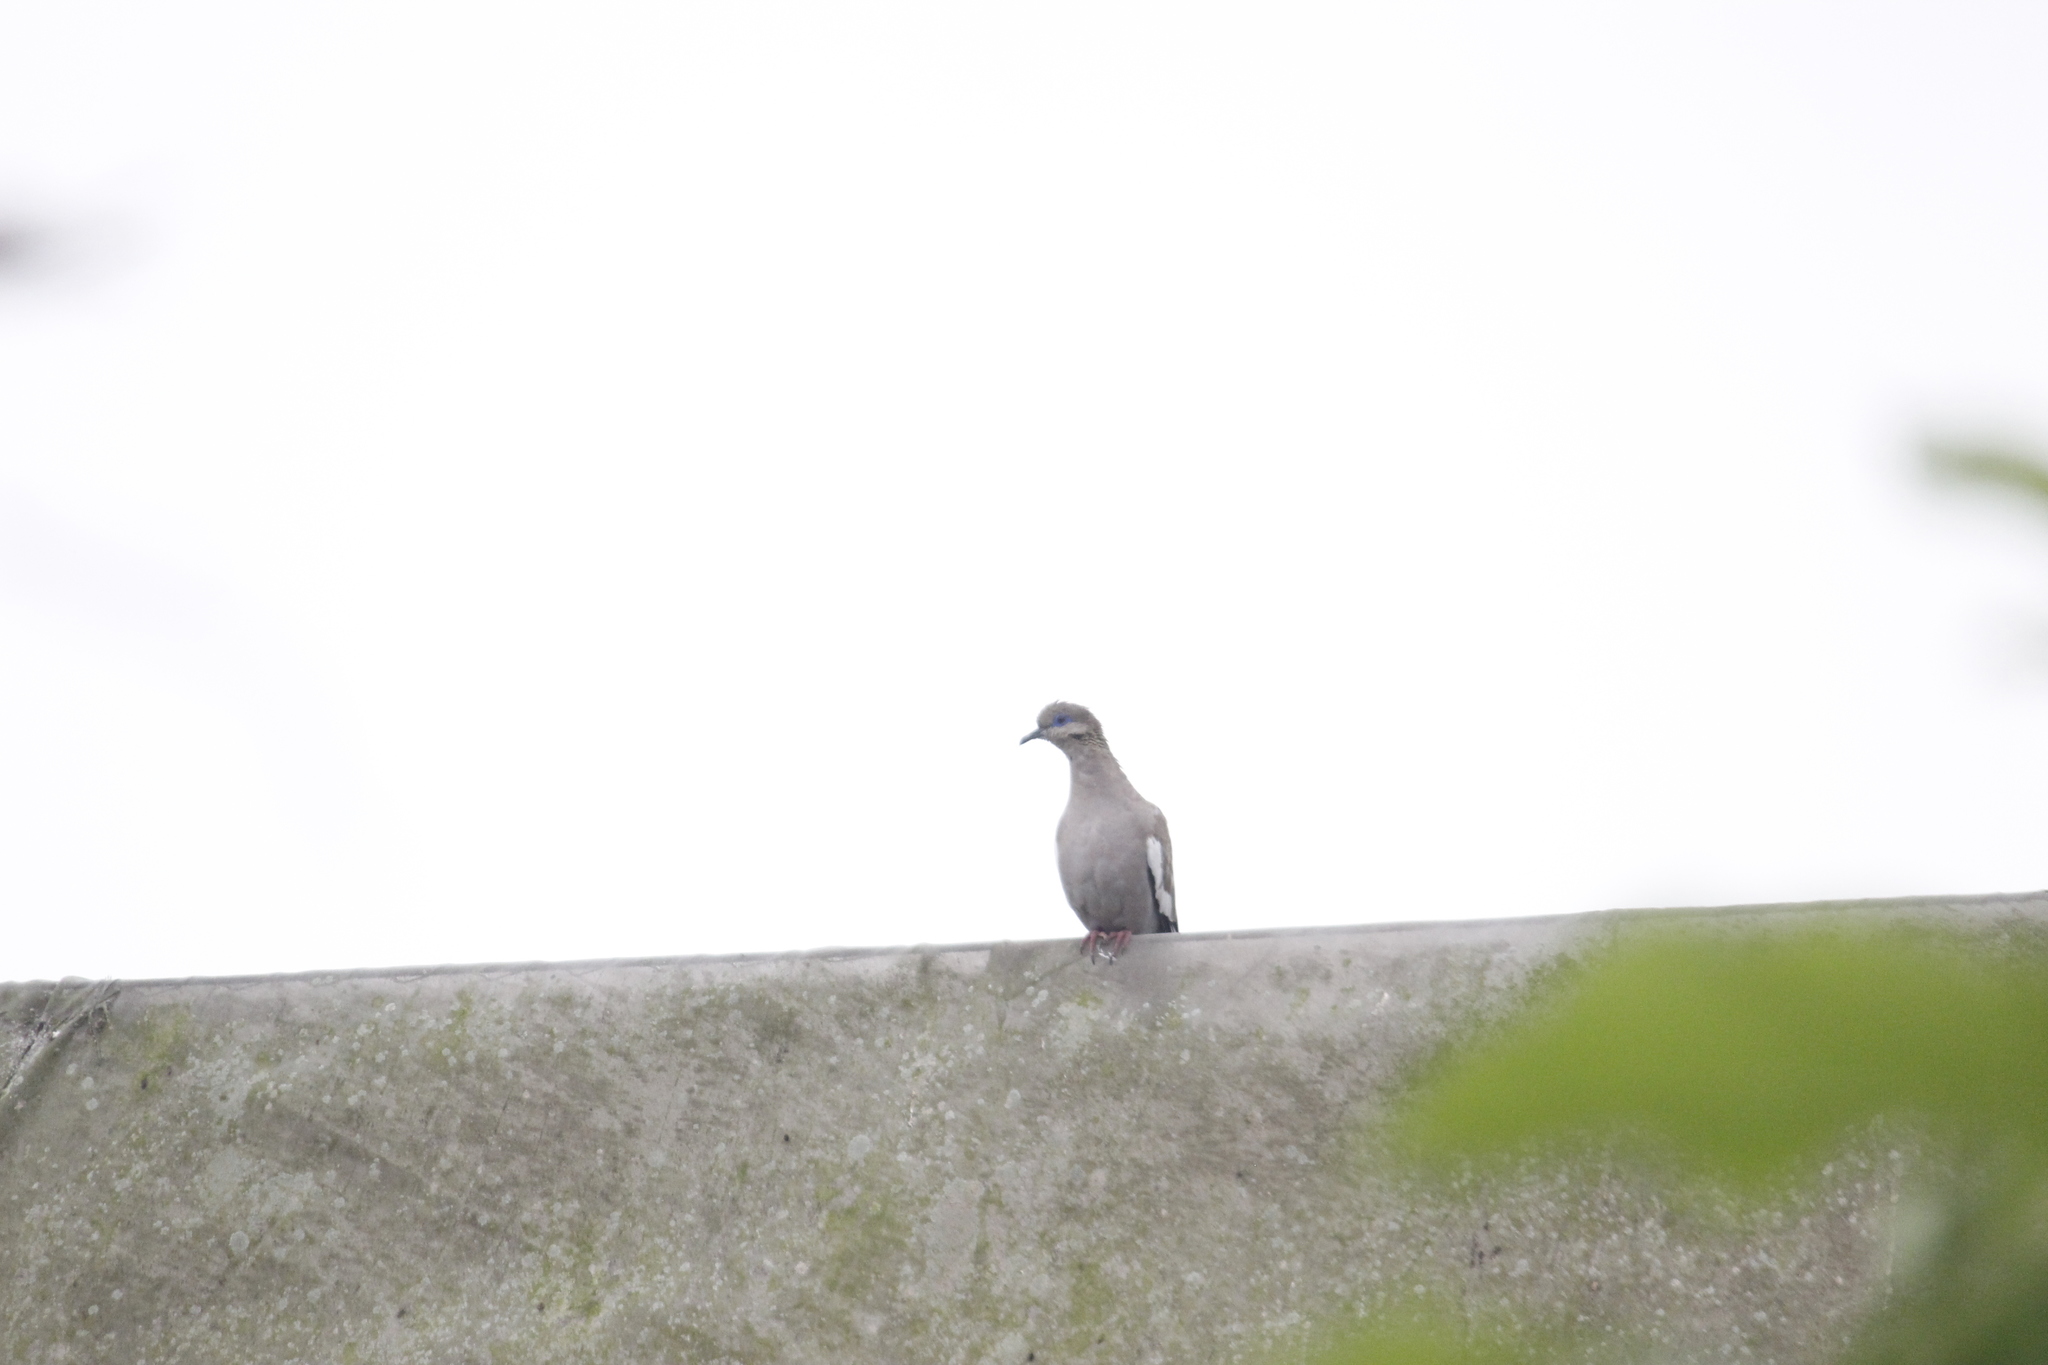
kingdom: Animalia
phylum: Chordata
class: Aves
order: Columbiformes
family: Columbidae
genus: Zenaida
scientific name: Zenaida meloda
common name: West peruvian dove
